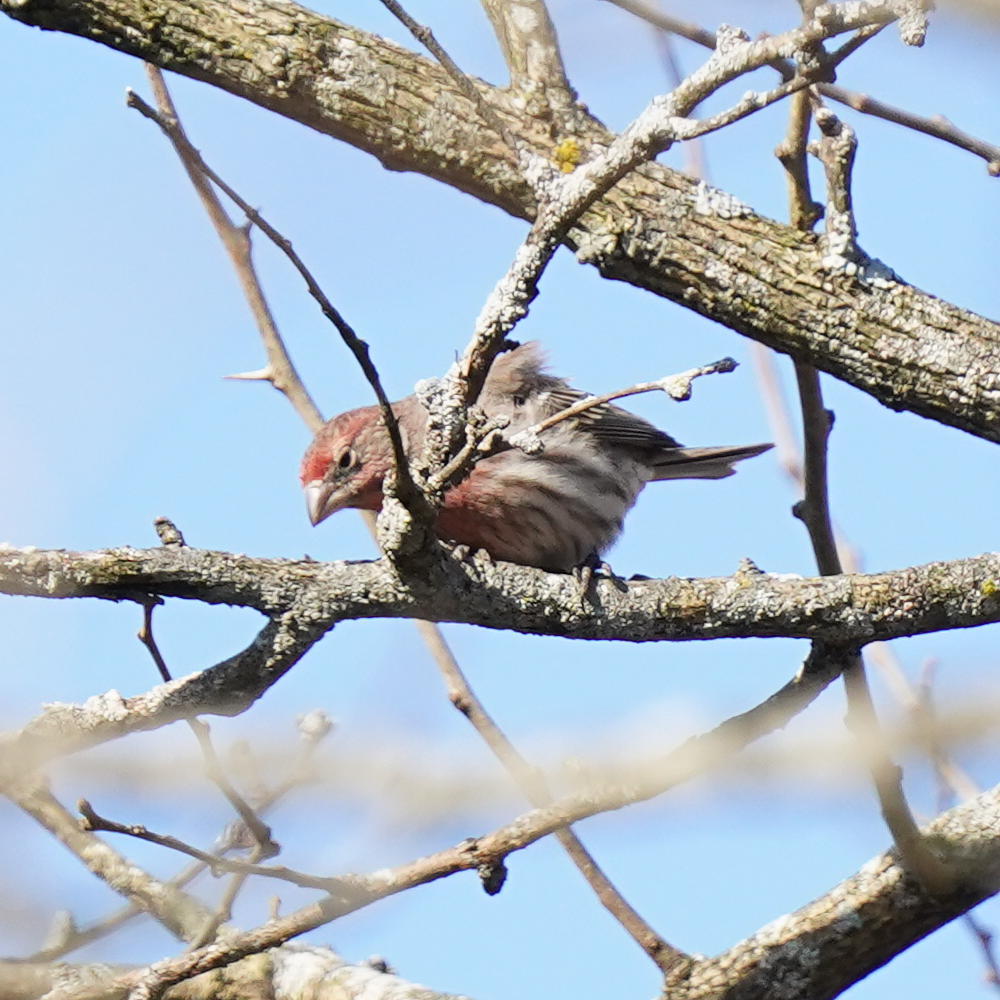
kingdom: Animalia
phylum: Chordata
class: Aves
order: Passeriformes
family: Fringillidae
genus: Haemorhous
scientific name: Haemorhous mexicanus
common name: House finch
